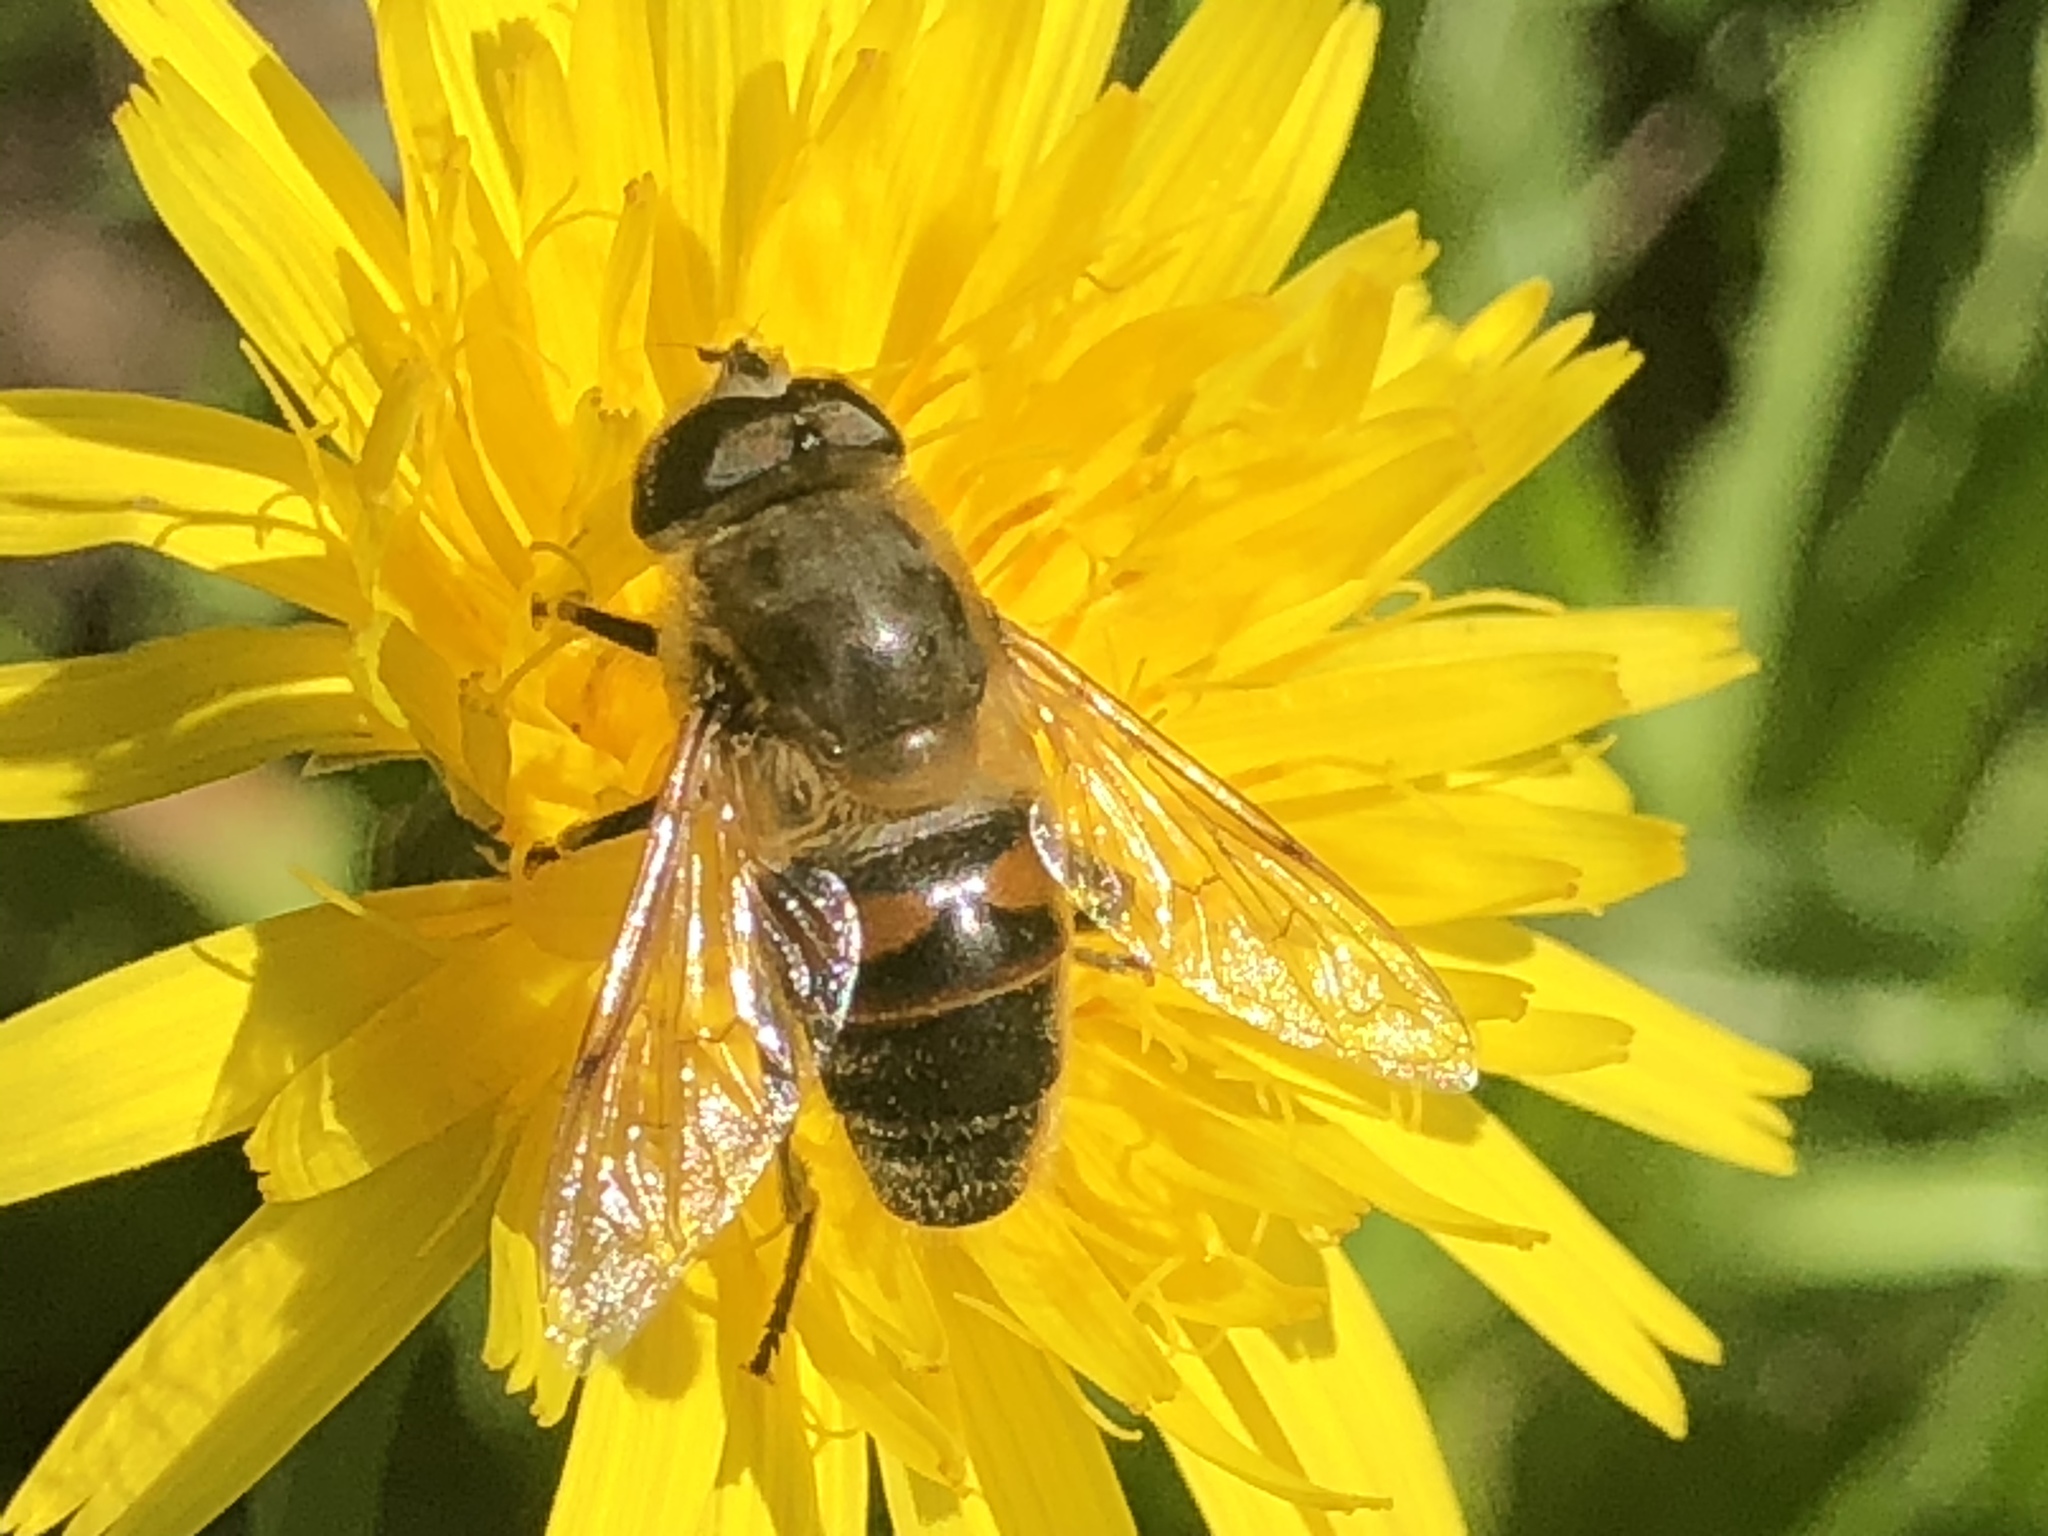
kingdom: Animalia
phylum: Arthropoda
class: Insecta
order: Diptera
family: Syrphidae
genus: Eristalis
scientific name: Eristalis tenax
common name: Drone fly
